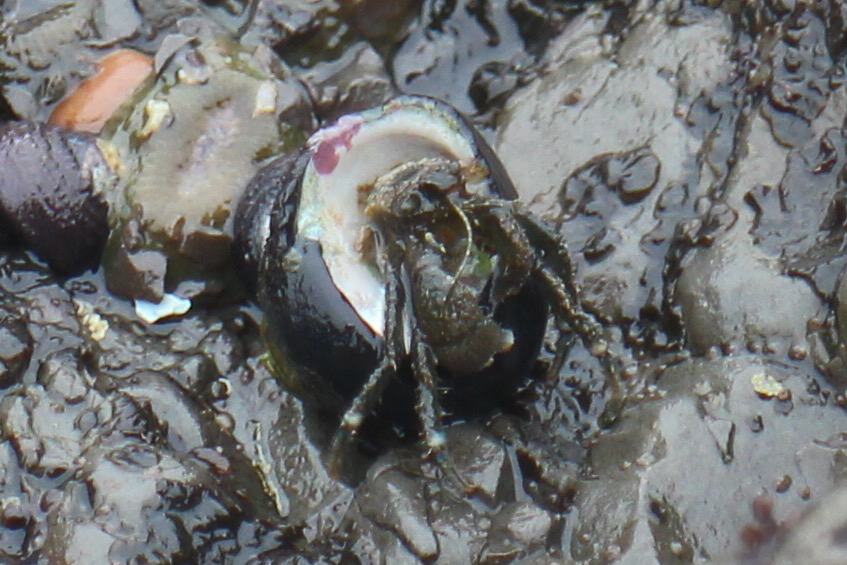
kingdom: Animalia
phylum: Arthropoda
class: Malacostraca
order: Decapoda
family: Paguridae
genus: Pagurus
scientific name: Pagurus hirsutiusculus
